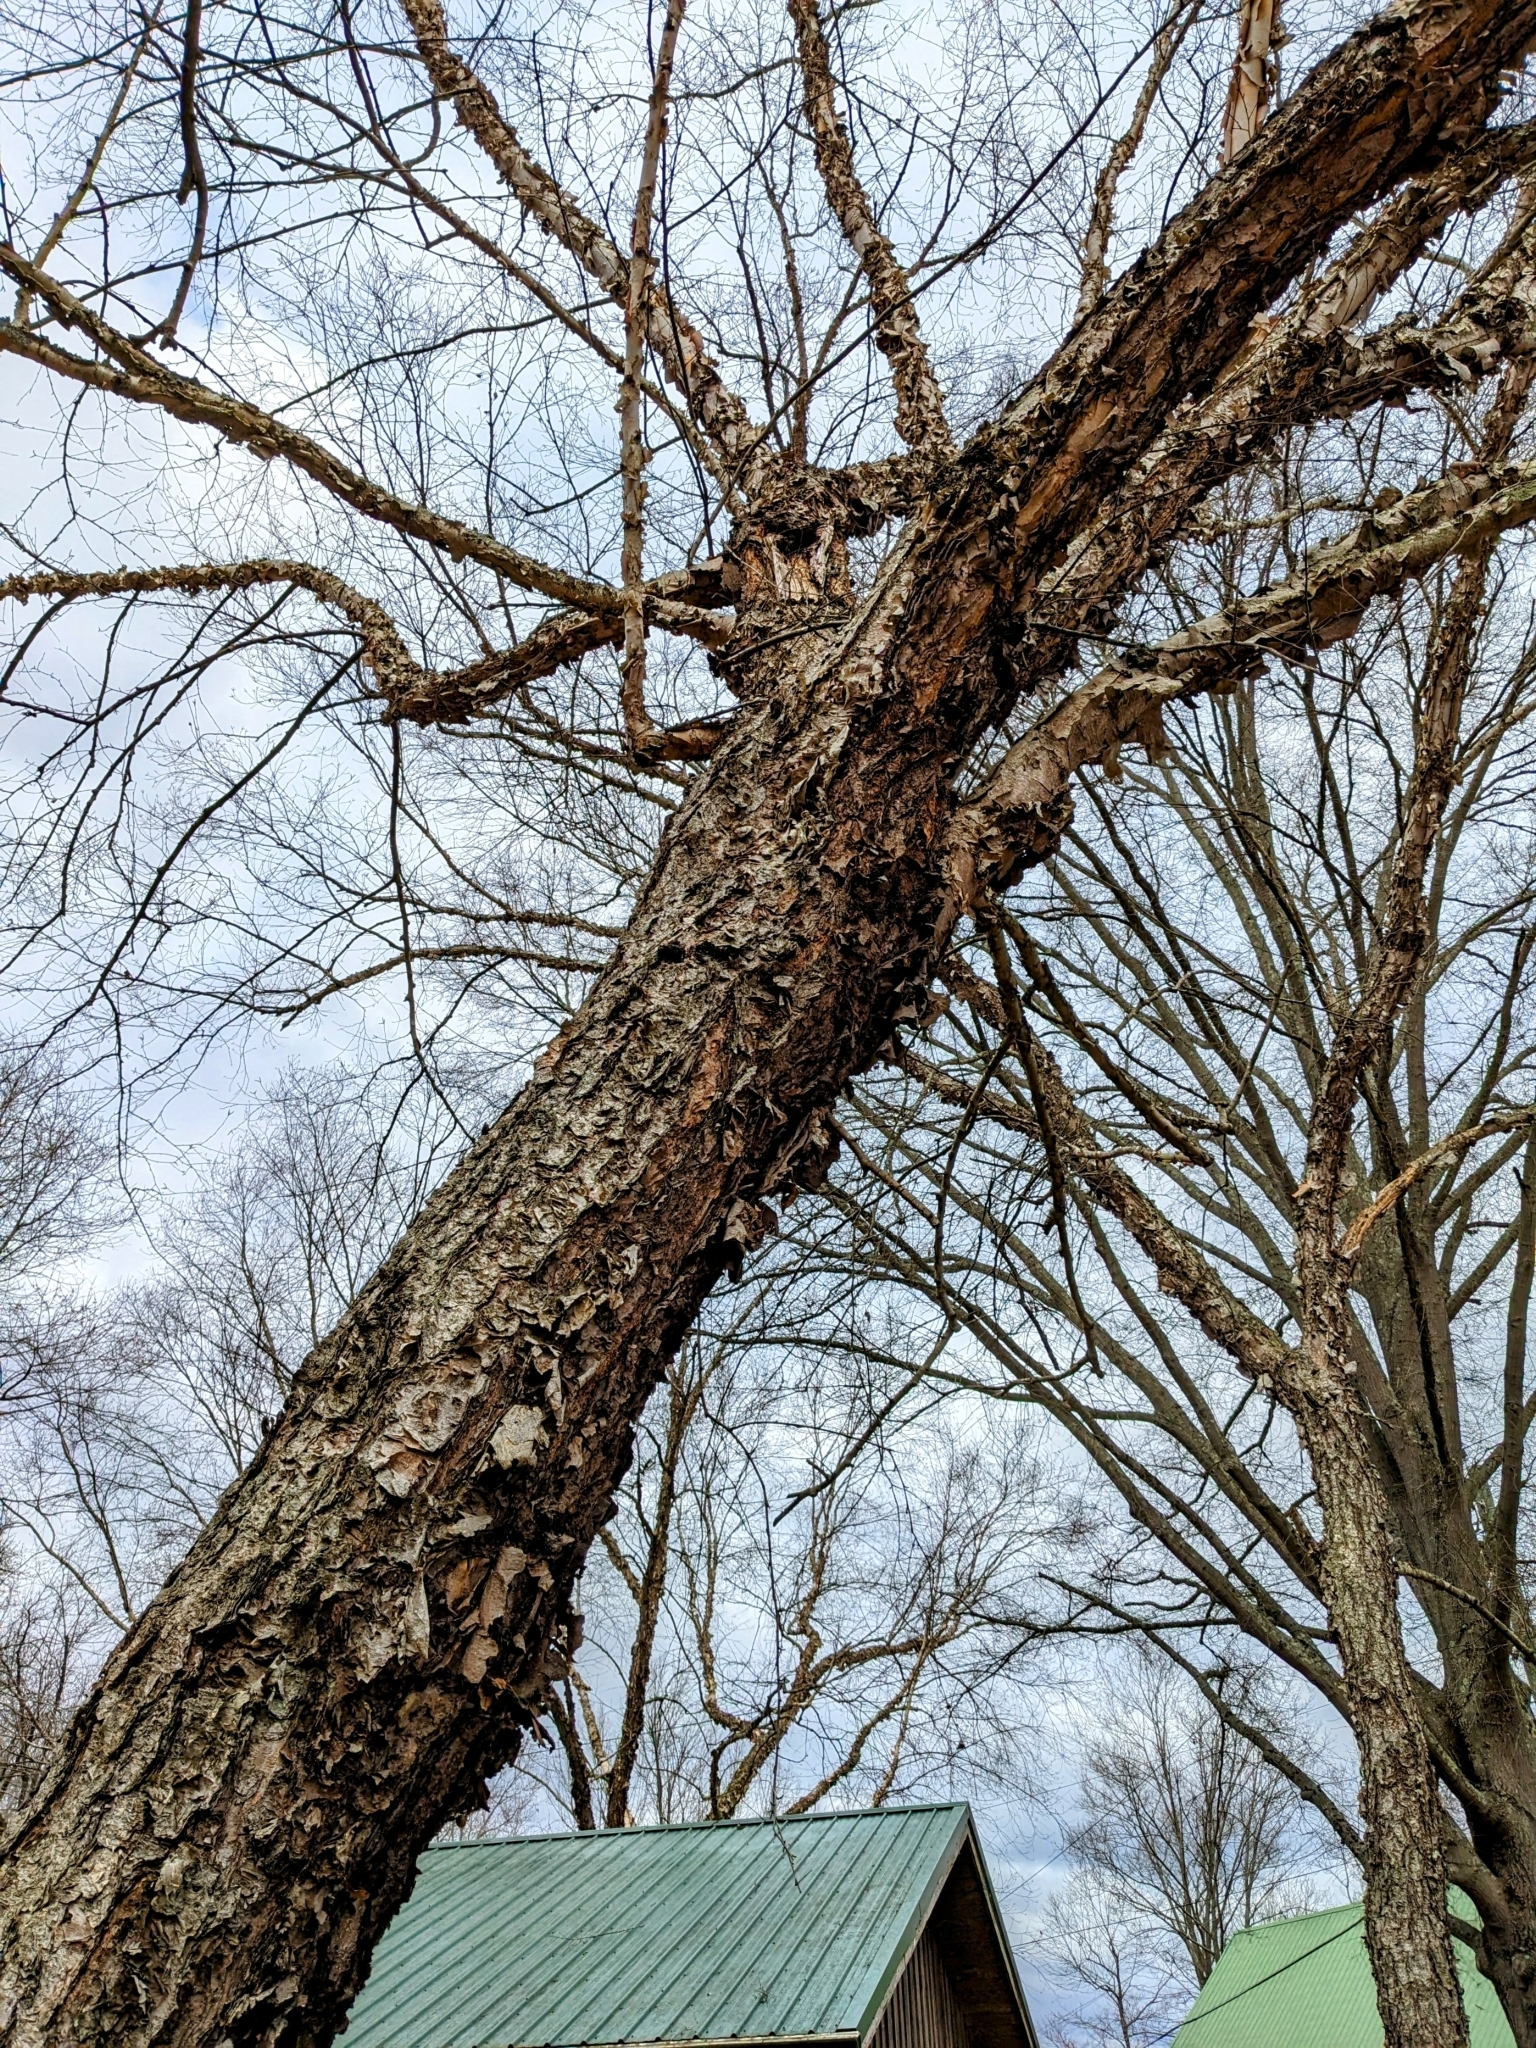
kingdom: Plantae
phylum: Tracheophyta
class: Magnoliopsida
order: Fagales
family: Betulaceae
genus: Betula
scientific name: Betula nigra
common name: Black birch
